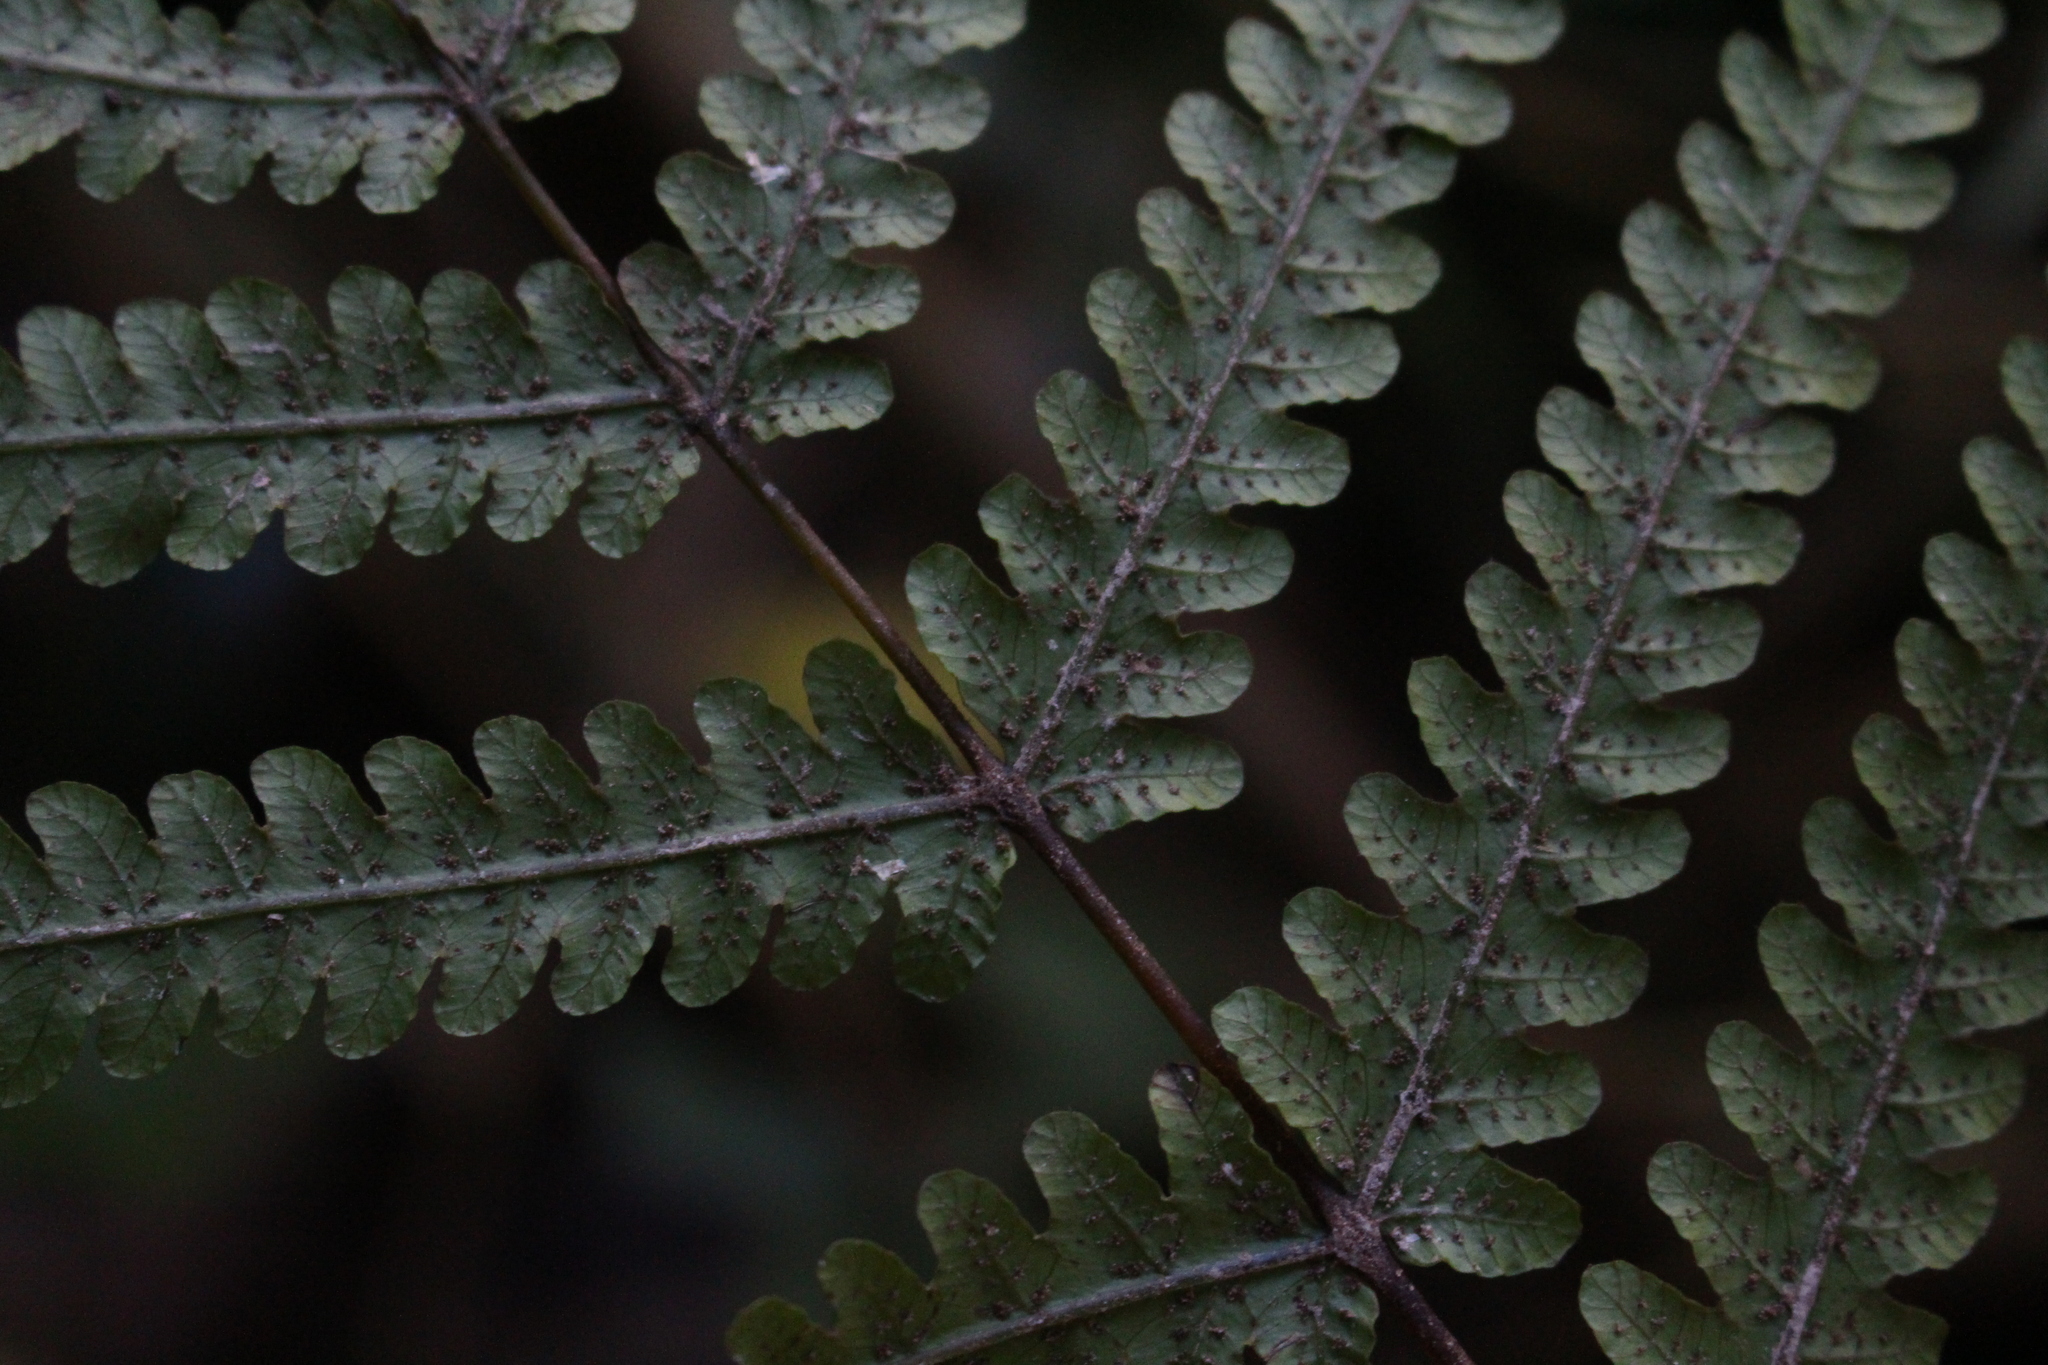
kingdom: Plantae
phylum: Tracheophyta
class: Polypodiopsida
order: Polypodiales
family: Thelypteridaceae
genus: Pakau
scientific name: Pakau pennigera
